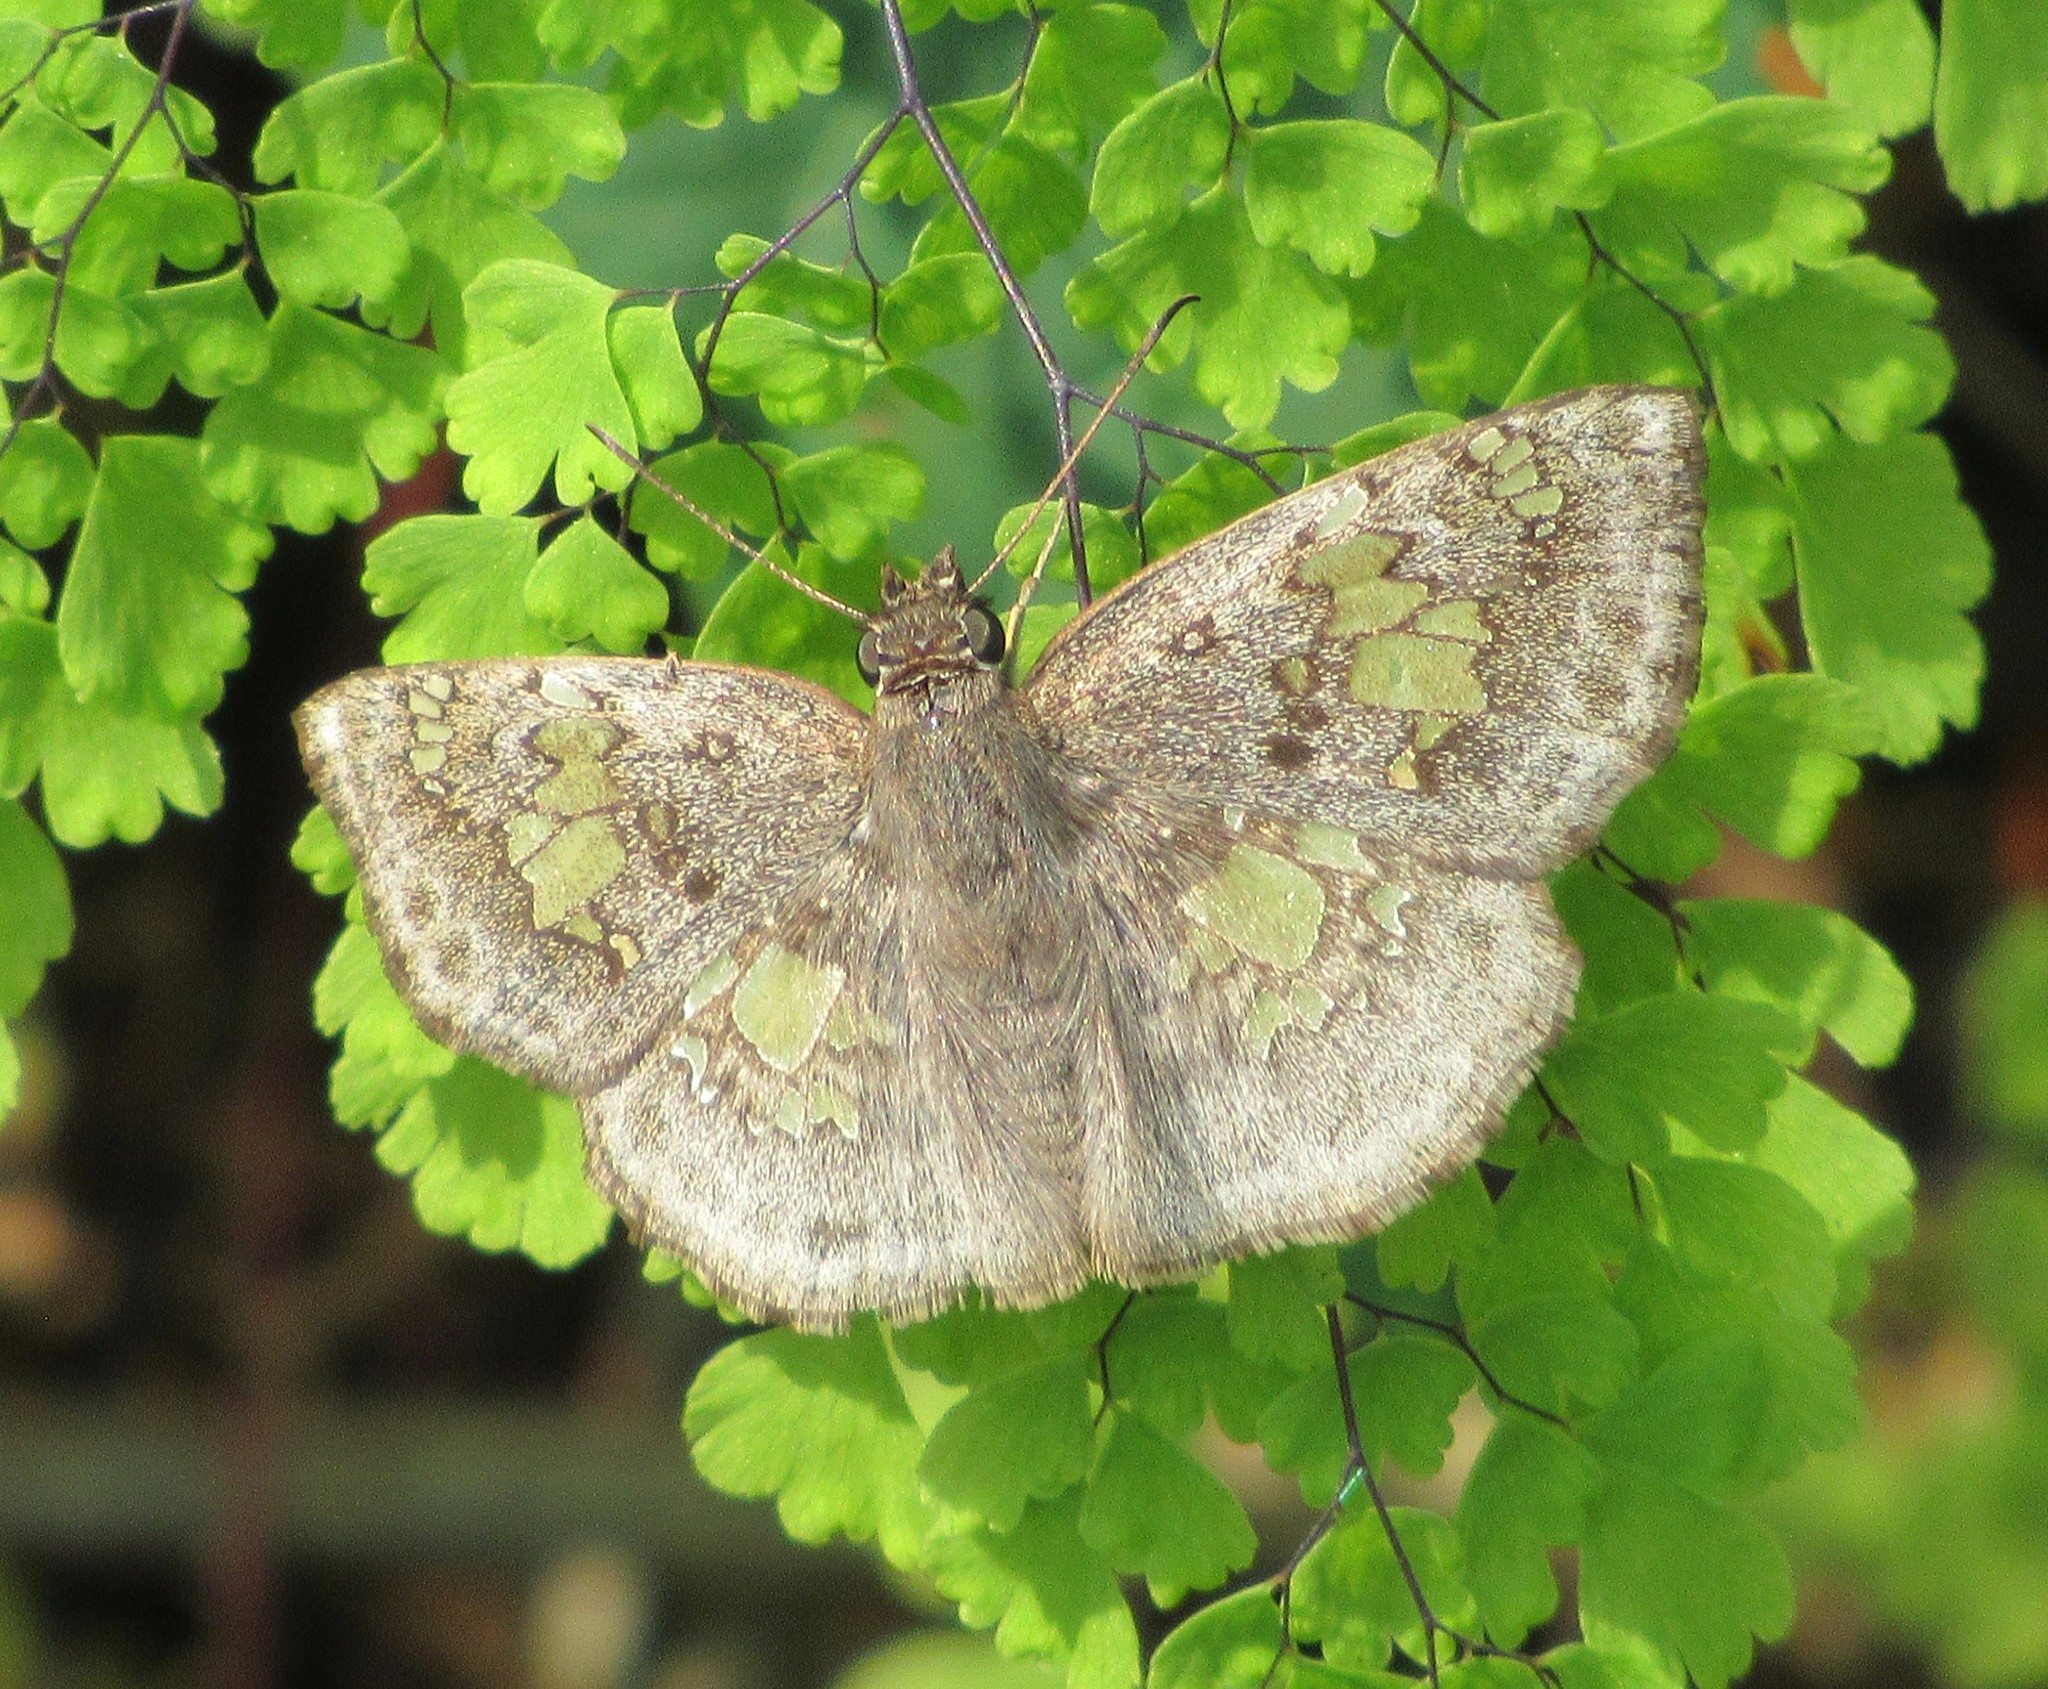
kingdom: Animalia
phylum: Arthropoda
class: Insecta
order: Lepidoptera
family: Hesperiidae
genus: Xenophanes
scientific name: Xenophanes tryxus
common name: Glassy-winged skipper
